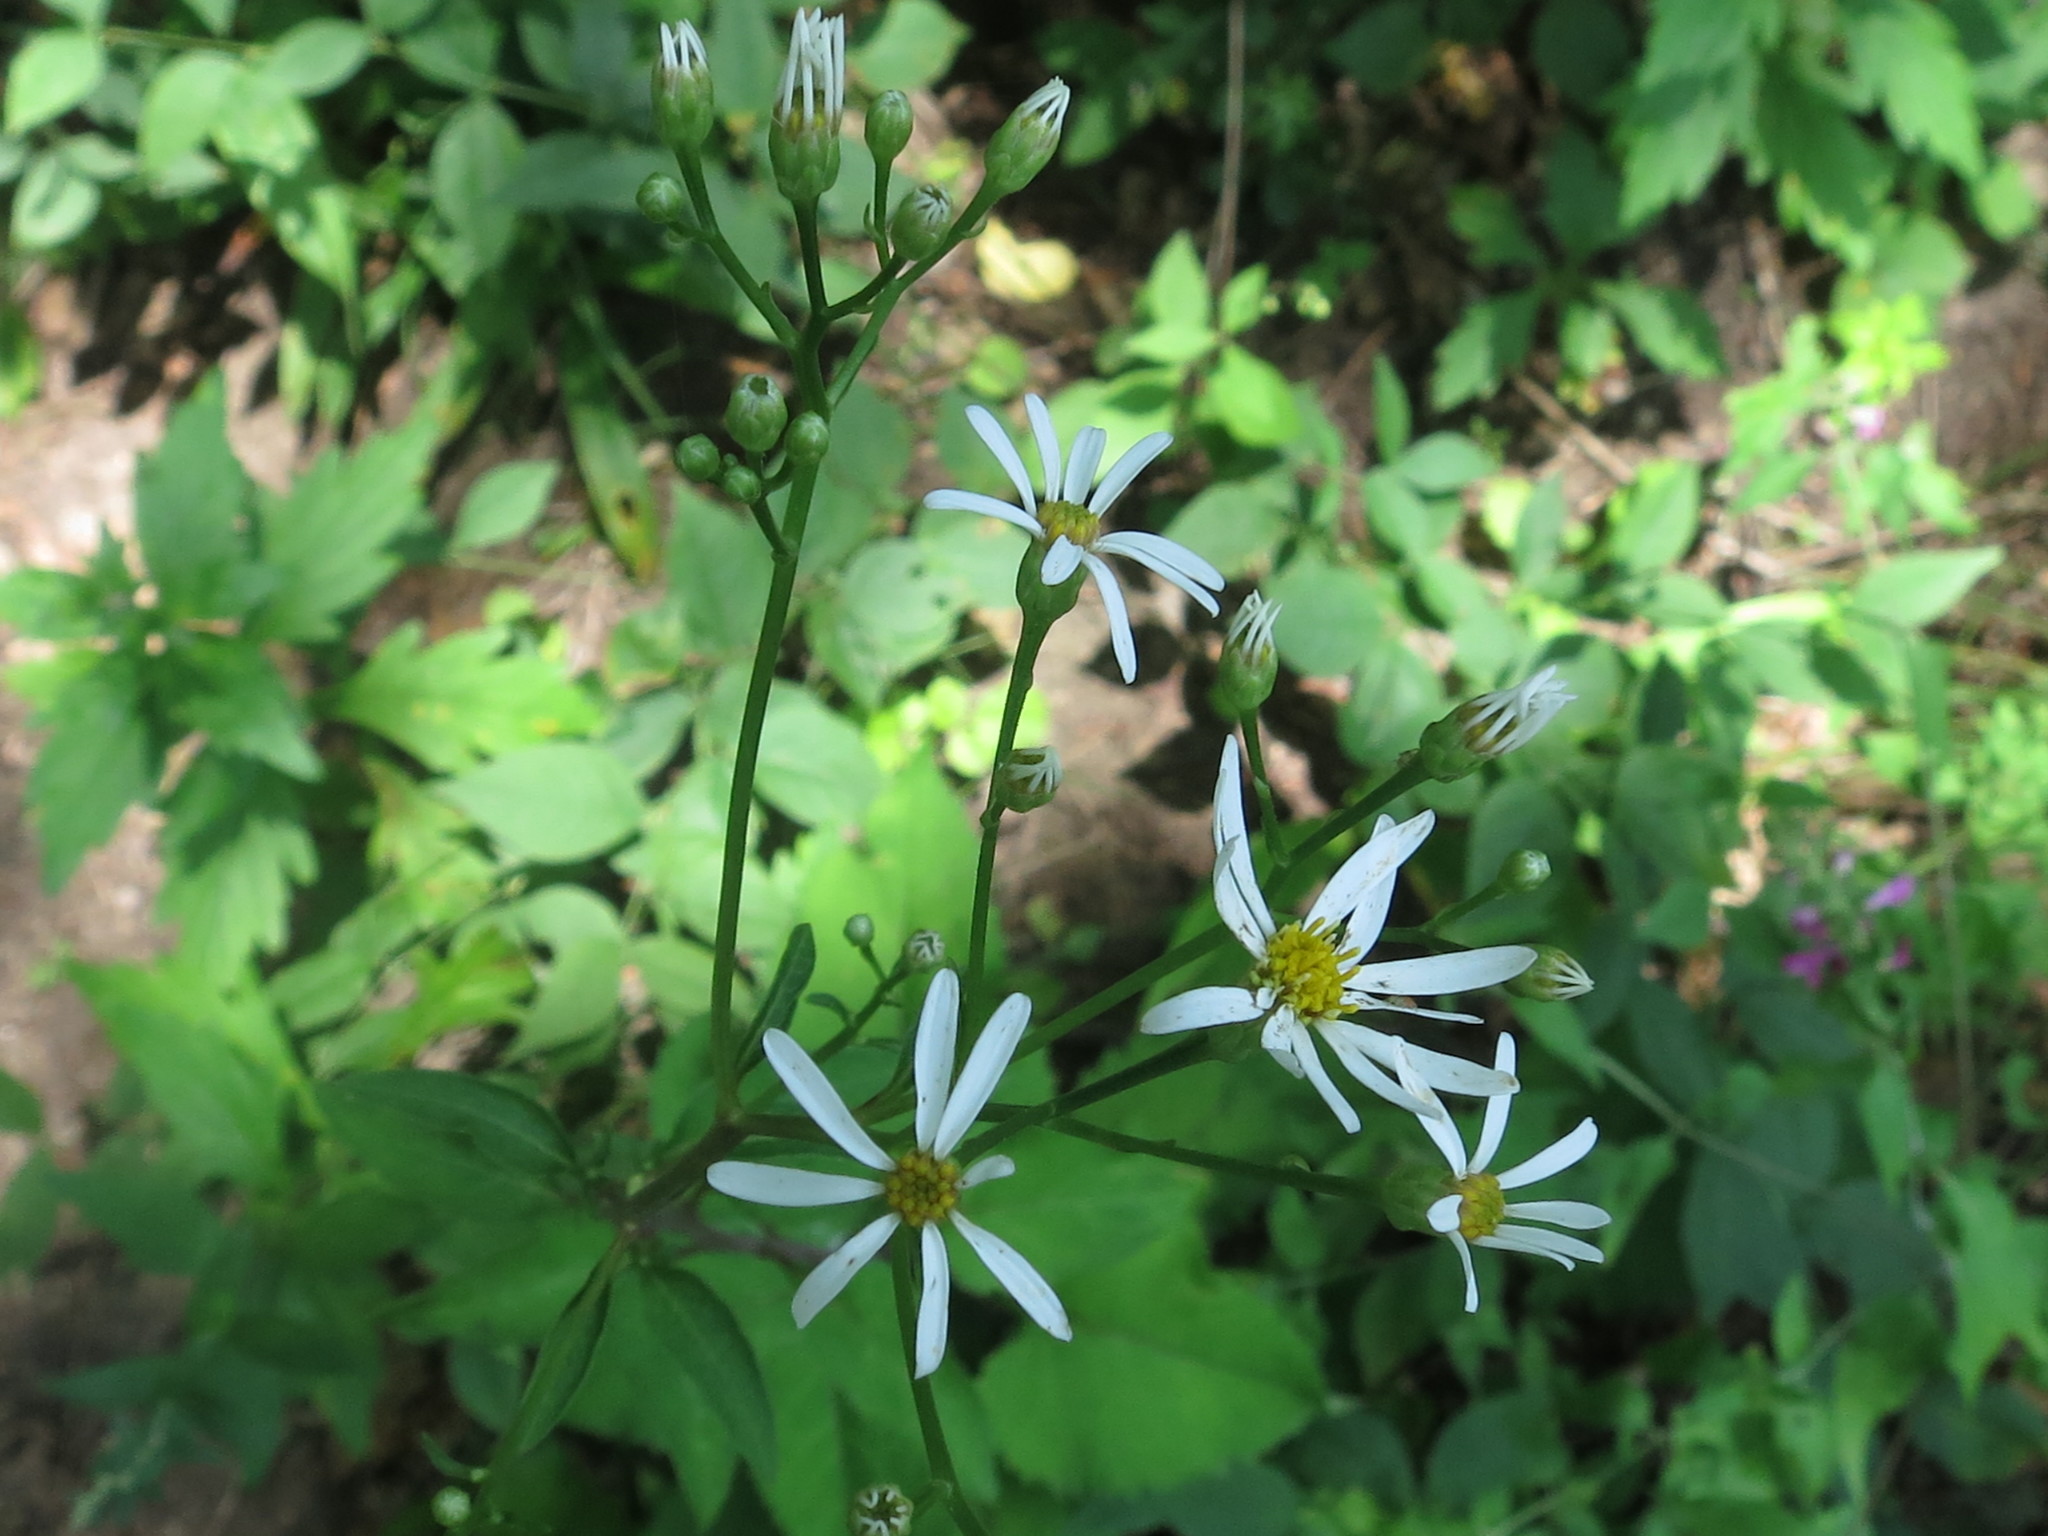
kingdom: Plantae
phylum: Tracheophyta
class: Magnoliopsida
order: Asterales
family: Asteraceae
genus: Aster
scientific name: Aster scaber
